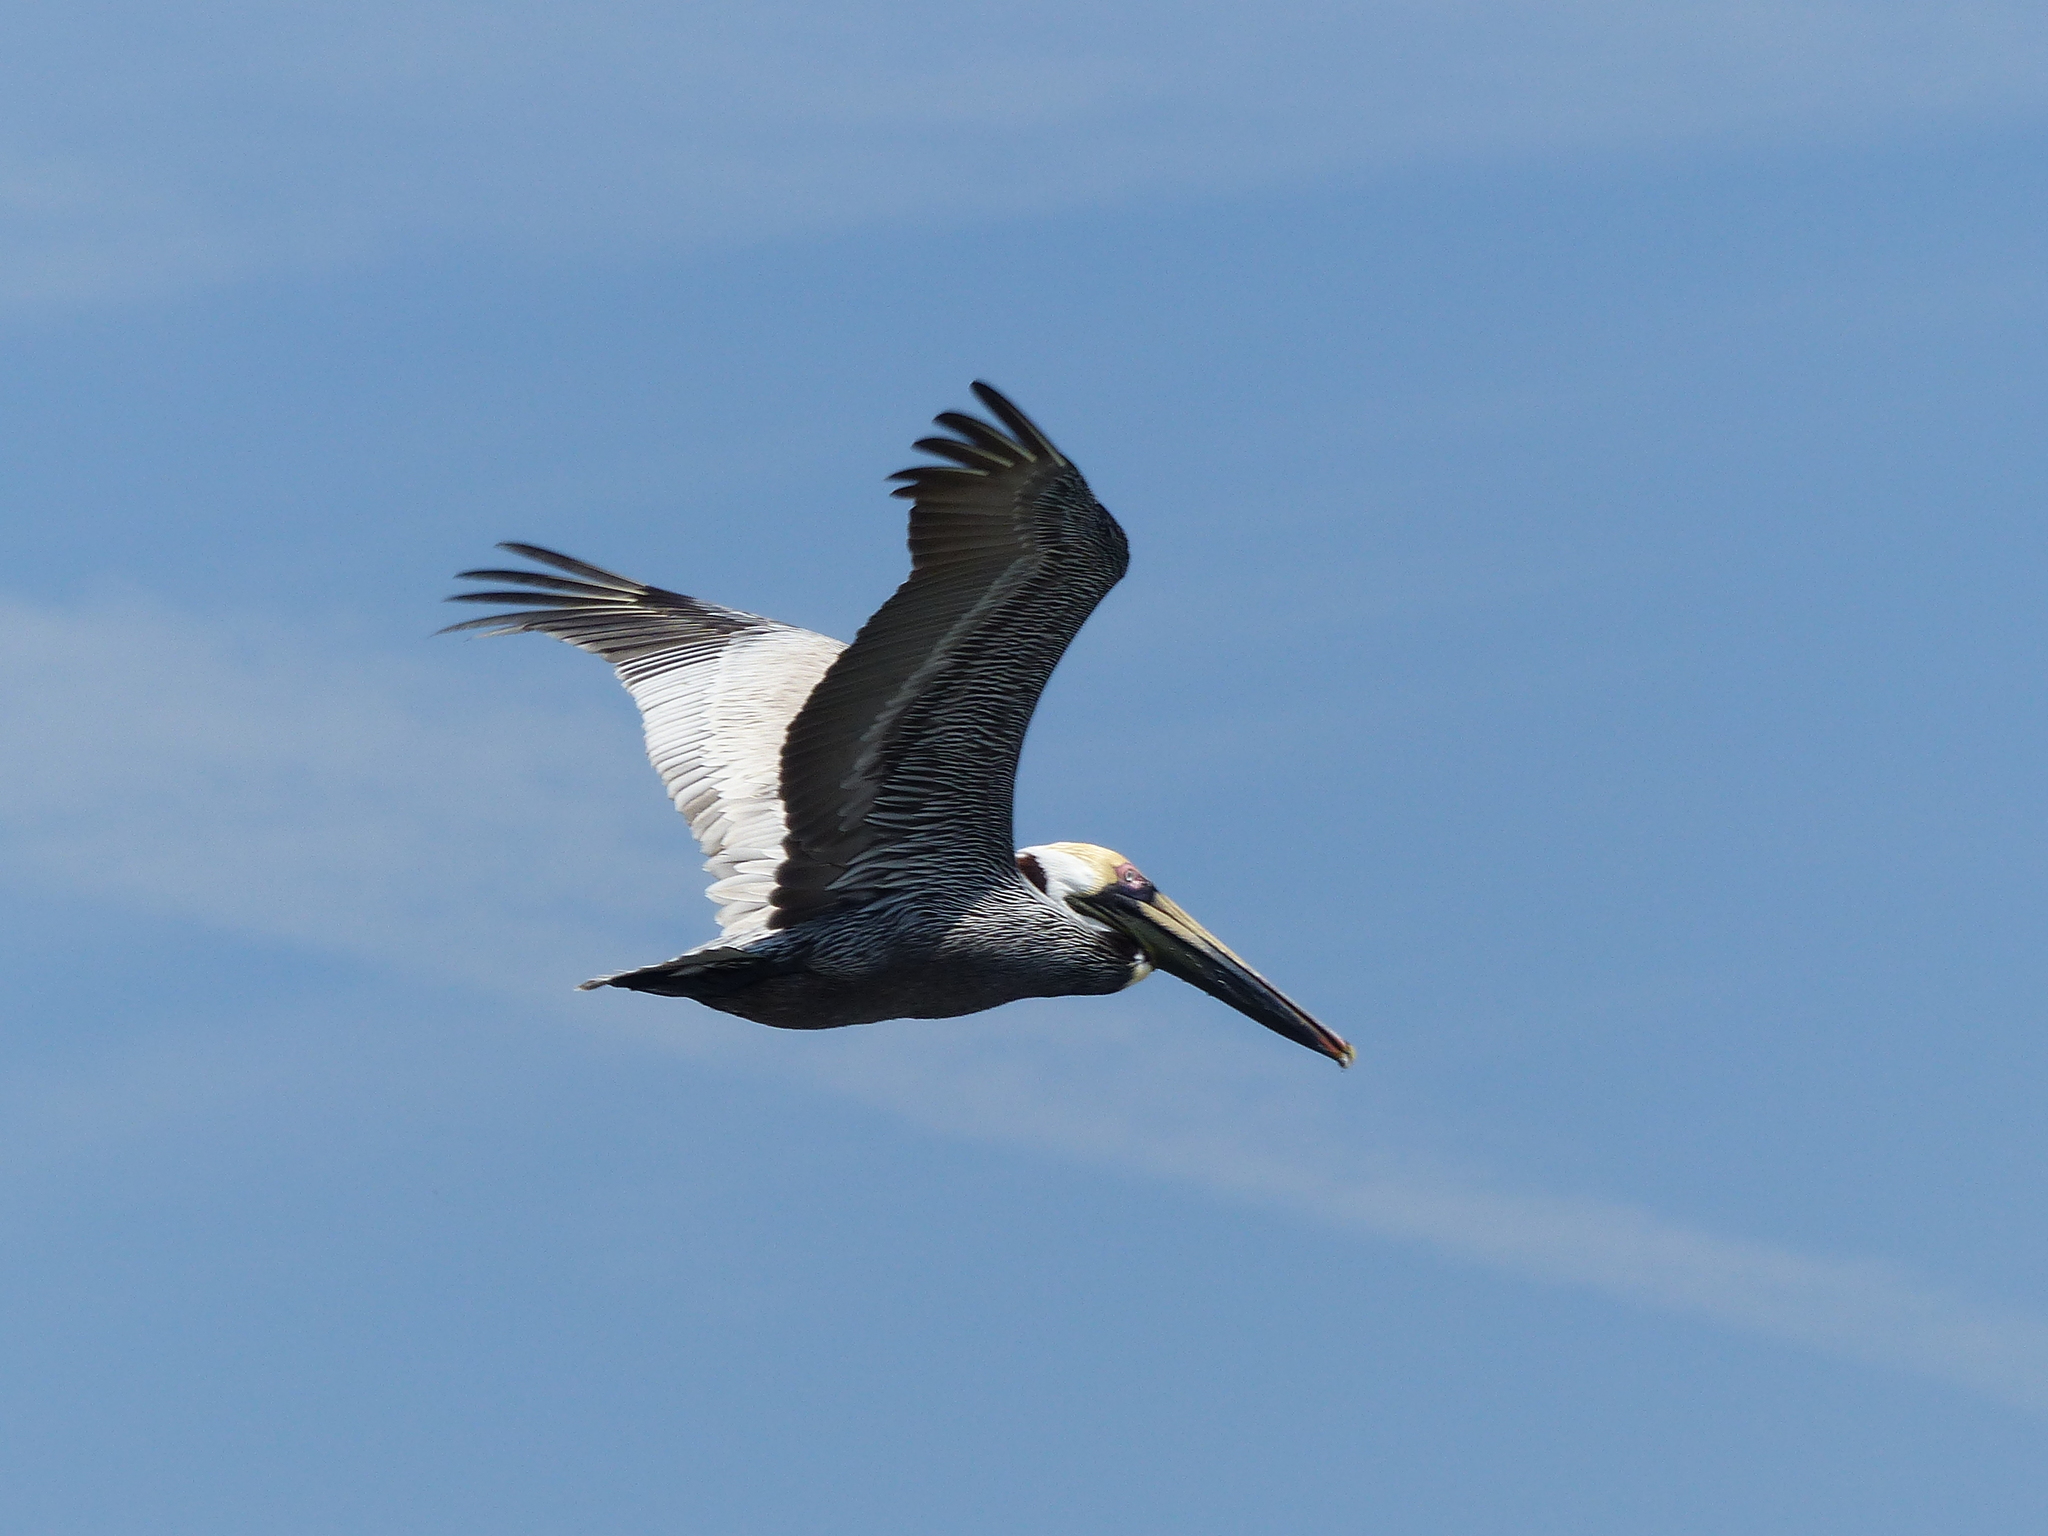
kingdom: Animalia
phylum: Chordata
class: Aves
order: Pelecaniformes
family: Pelecanidae
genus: Pelecanus
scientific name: Pelecanus occidentalis
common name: Brown pelican
